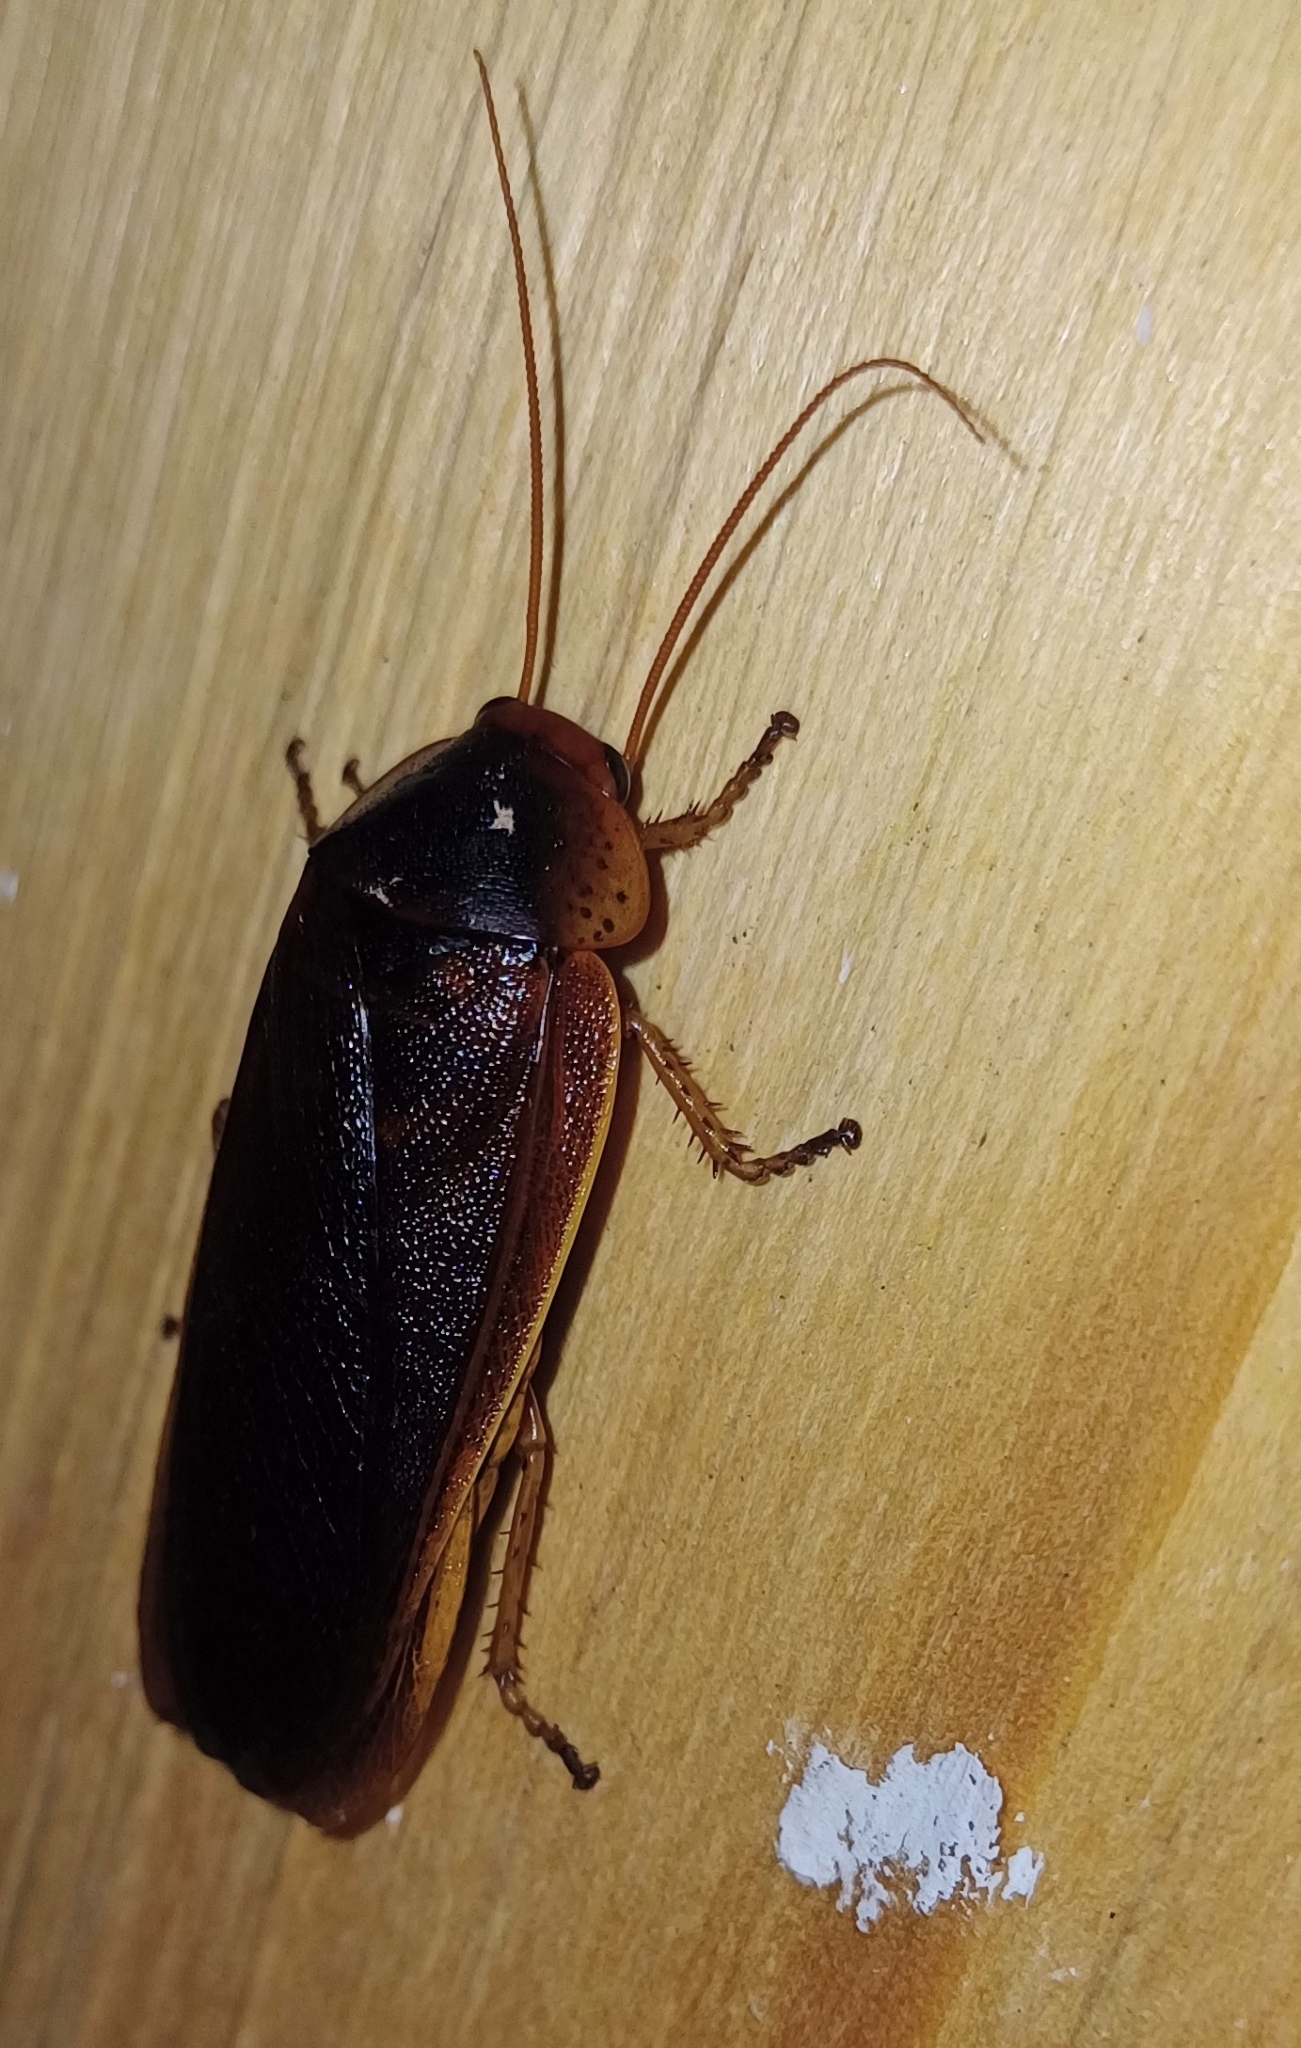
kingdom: Animalia
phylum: Arthropoda
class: Insecta
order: Blattodea
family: Blaberidae
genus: Aptera
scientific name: Aptera fusca
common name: Cape mountain cockroach
